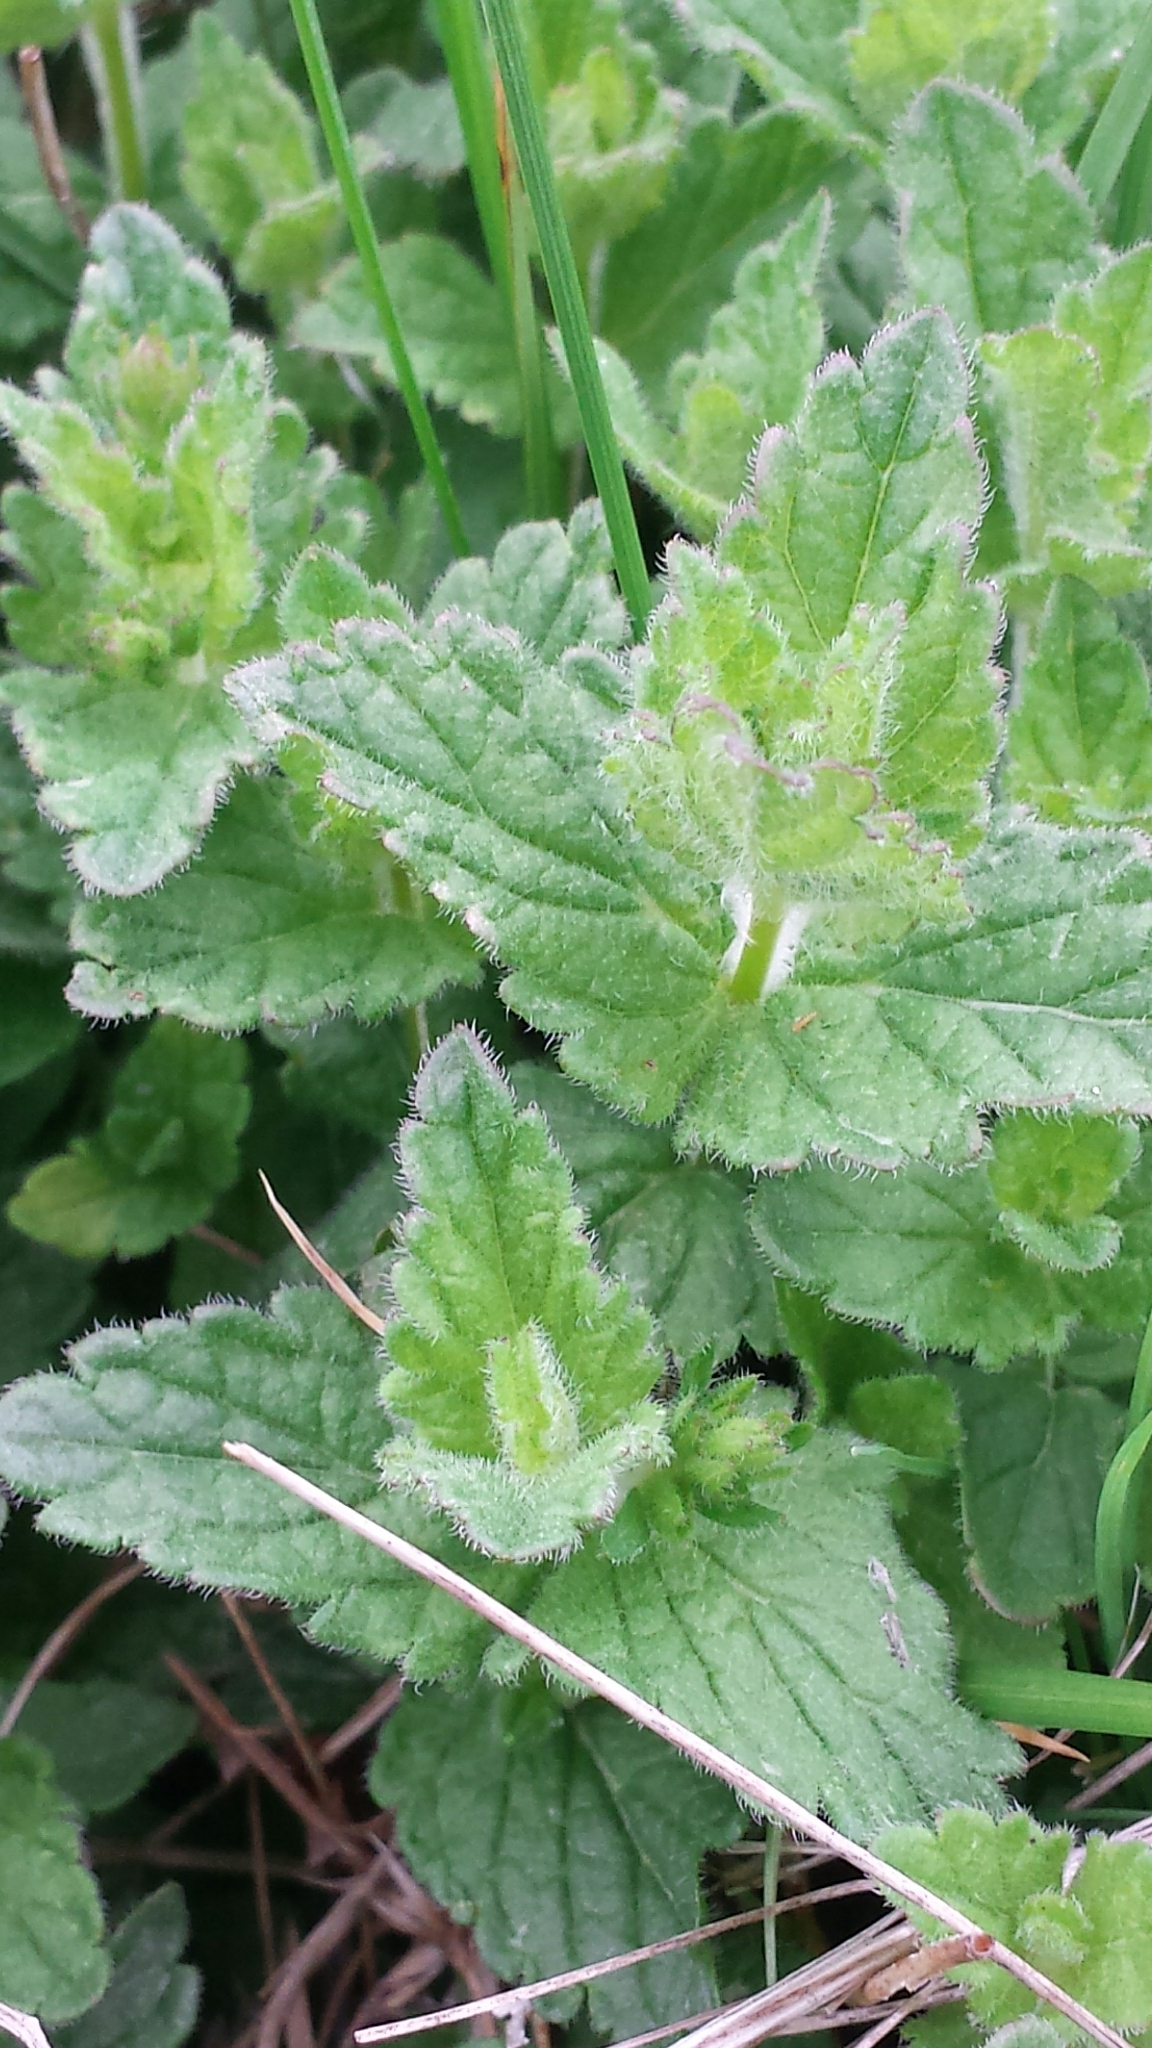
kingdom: Plantae
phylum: Tracheophyta
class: Magnoliopsida
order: Lamiales
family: Plantaginaceae
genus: Veronica
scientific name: Veronica chamaedrys
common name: Germander speedwell
